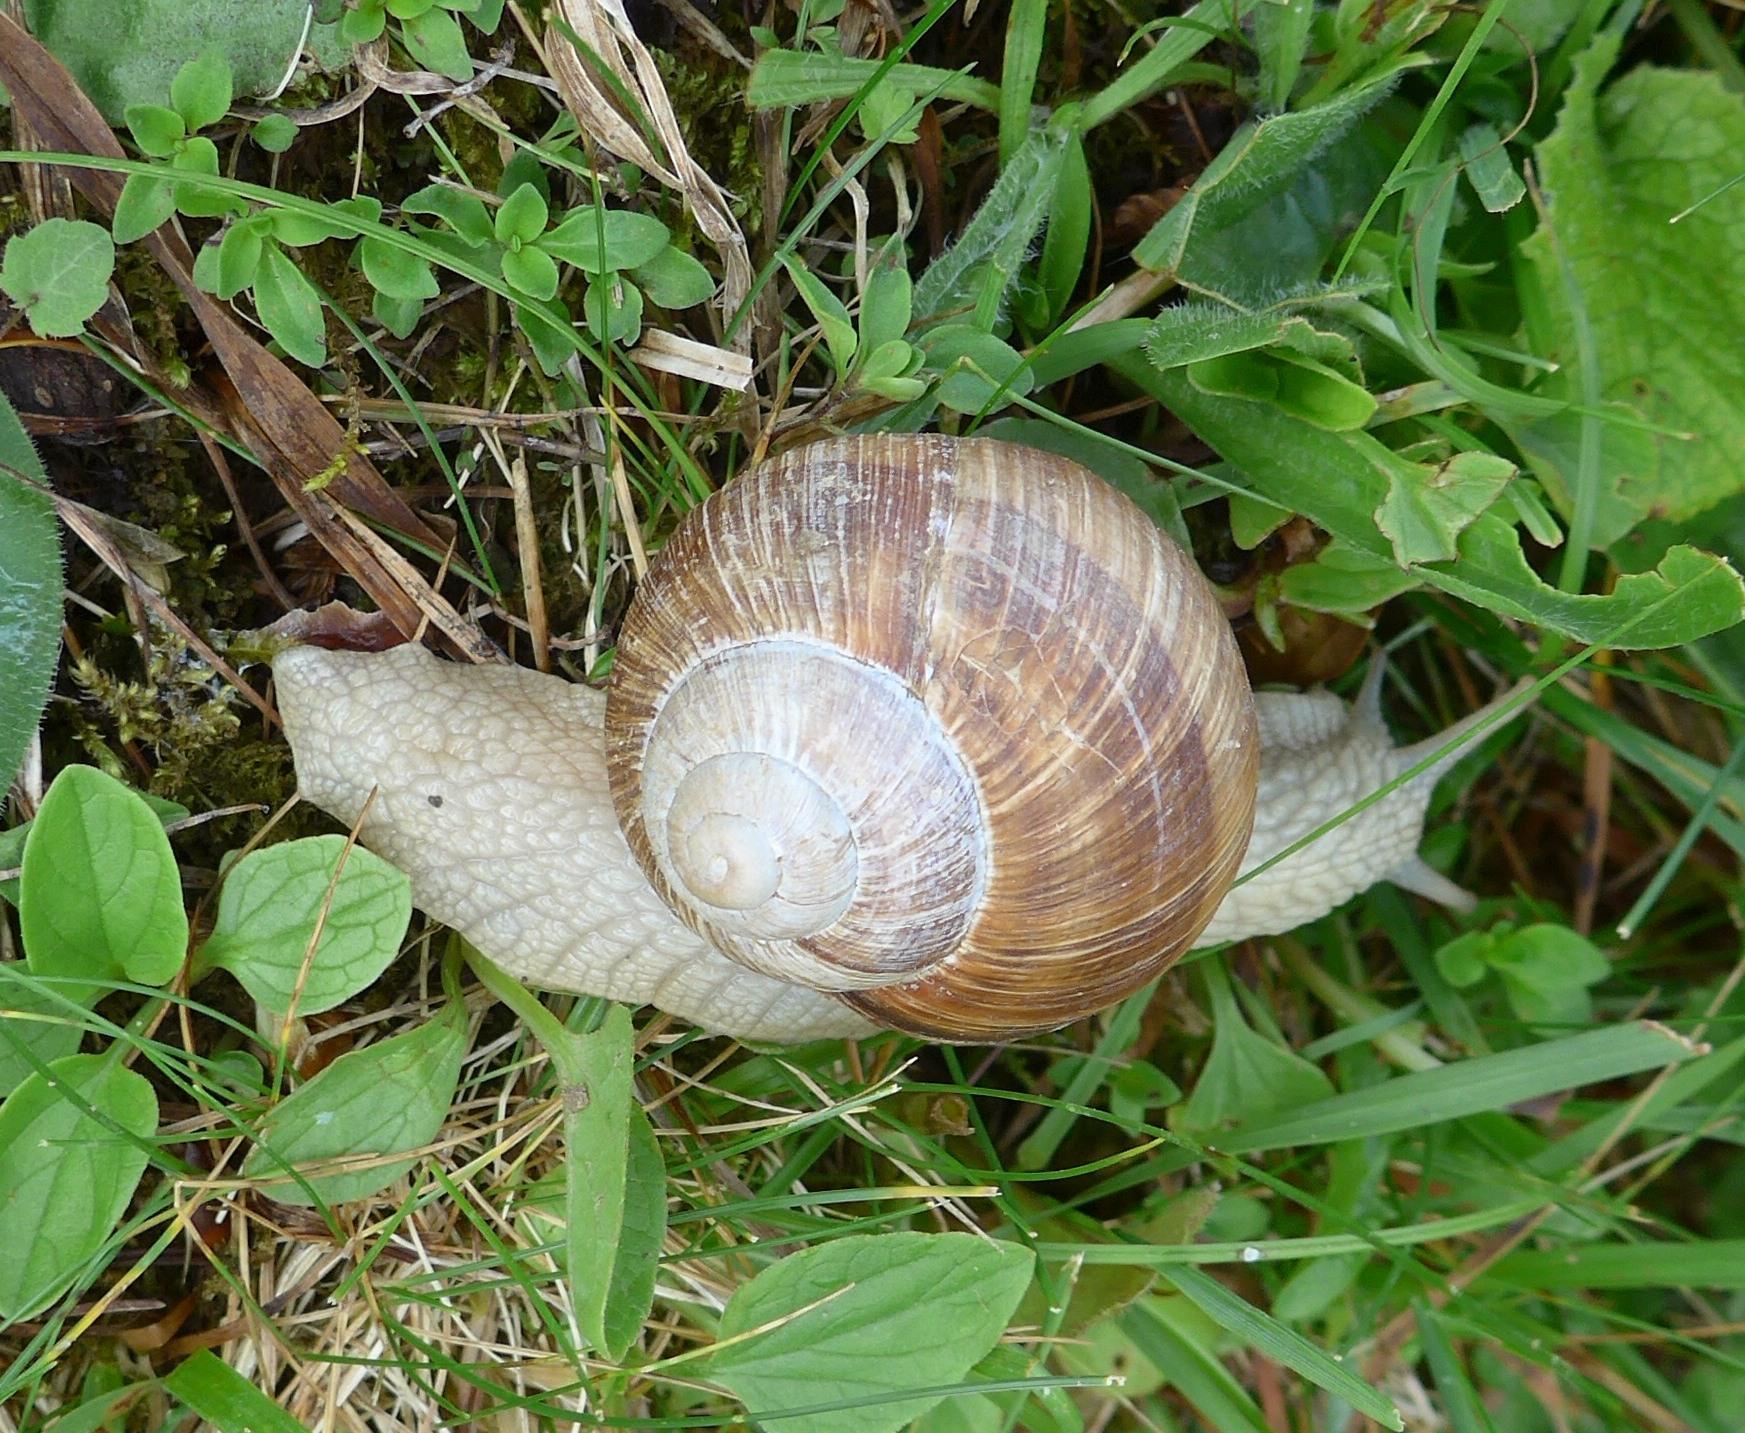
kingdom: Animalia
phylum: Mollusca
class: Gastropoda
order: Stylommatophora
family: Helicidae
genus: Helix
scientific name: Helix pomatia
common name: Roman snail
